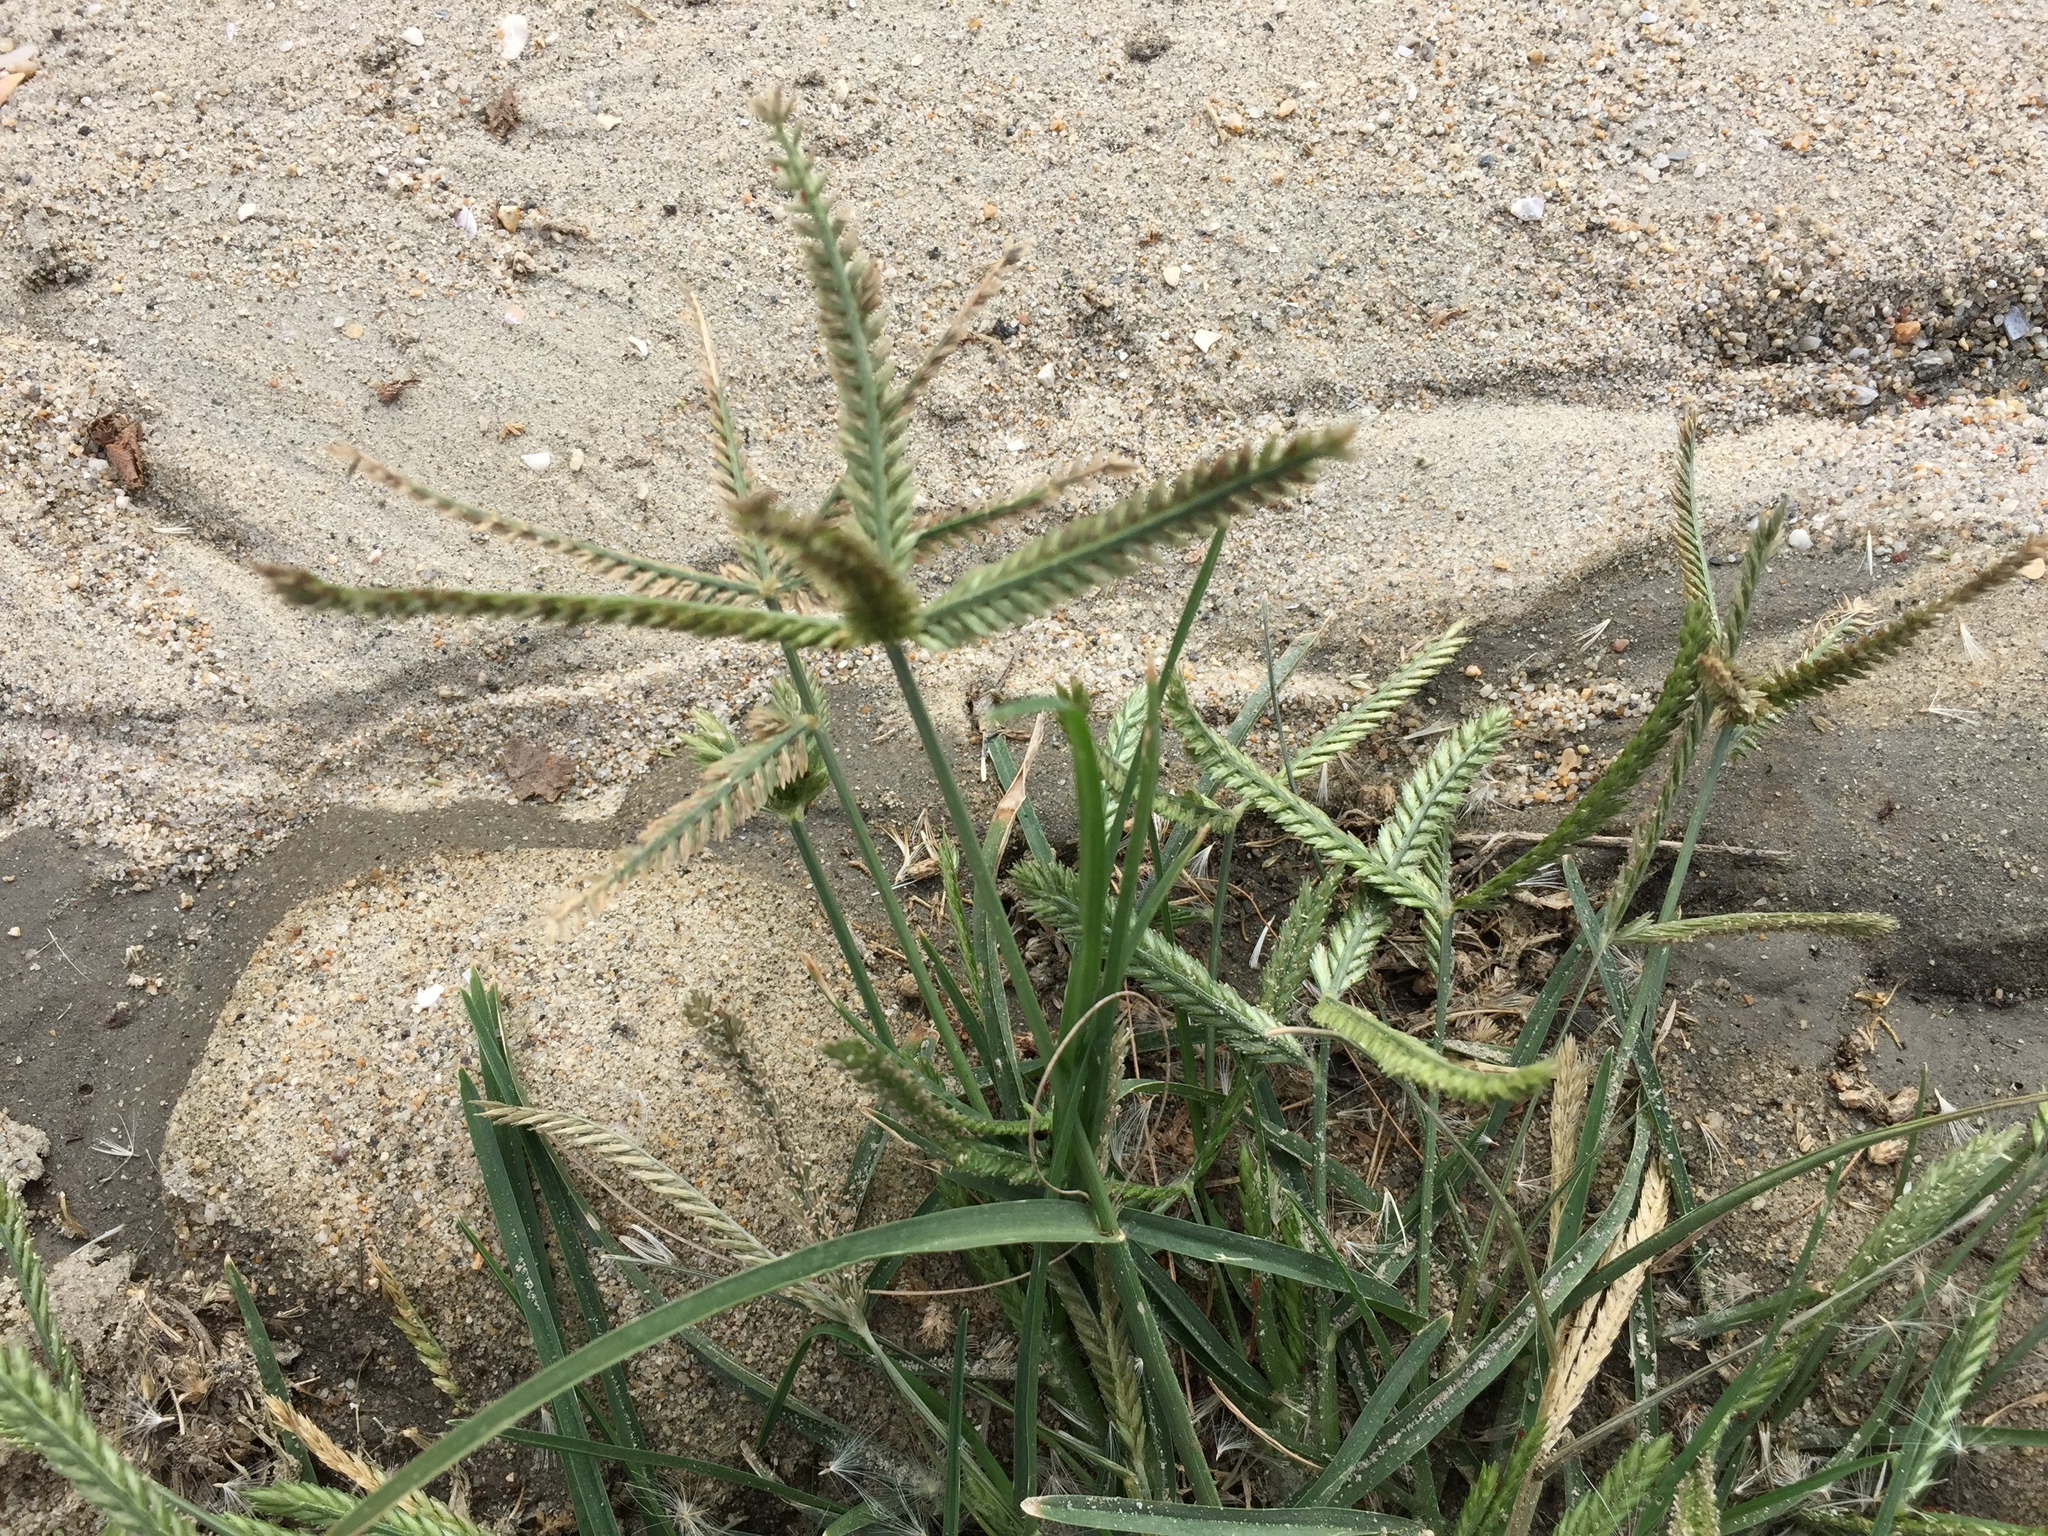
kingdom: Plantae
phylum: Tracheophyta
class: Liliopsida
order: Poales
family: Poaceae
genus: Eleusine
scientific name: Eleusine indica
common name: Yard-grass
